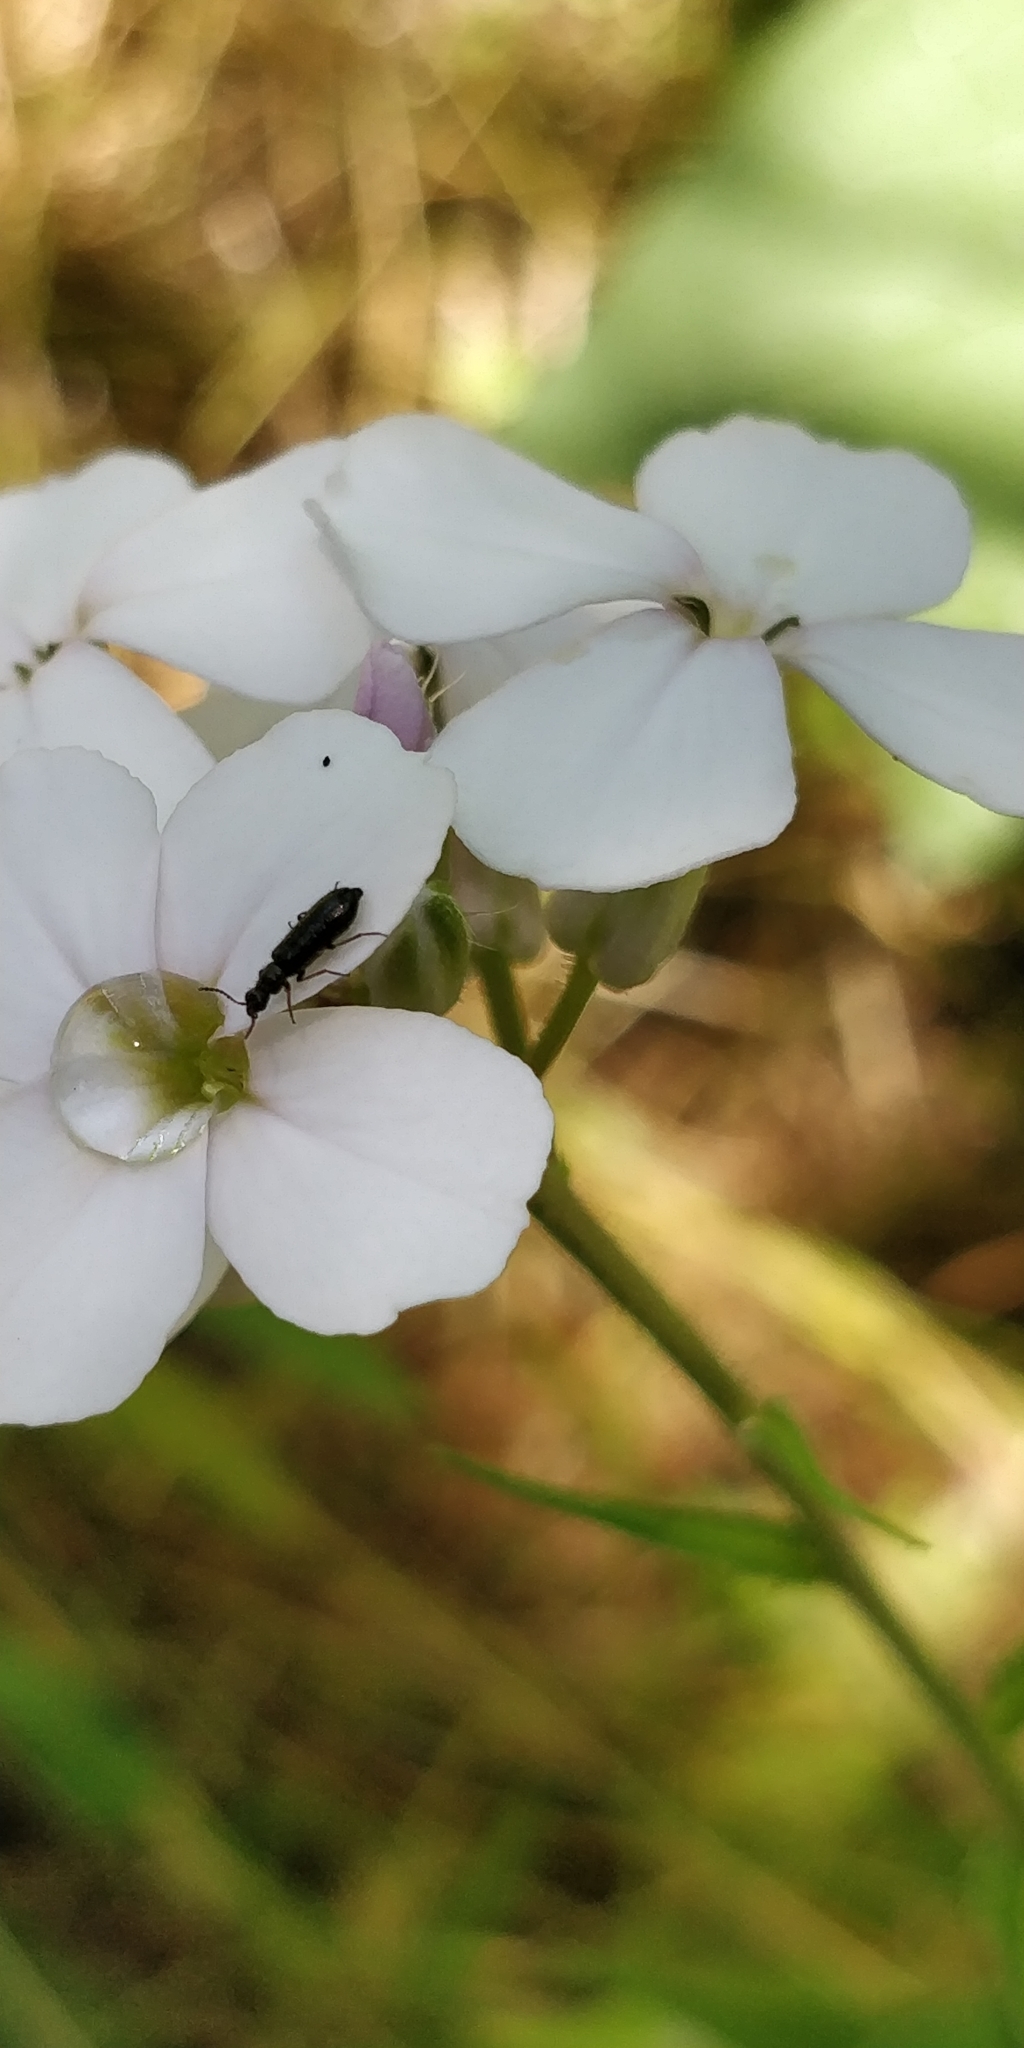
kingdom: Animalia
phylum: Arthropoda
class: Insecta
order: Coleoptera
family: Melyridae
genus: Dasytes
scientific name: Dasytes plumbeus
